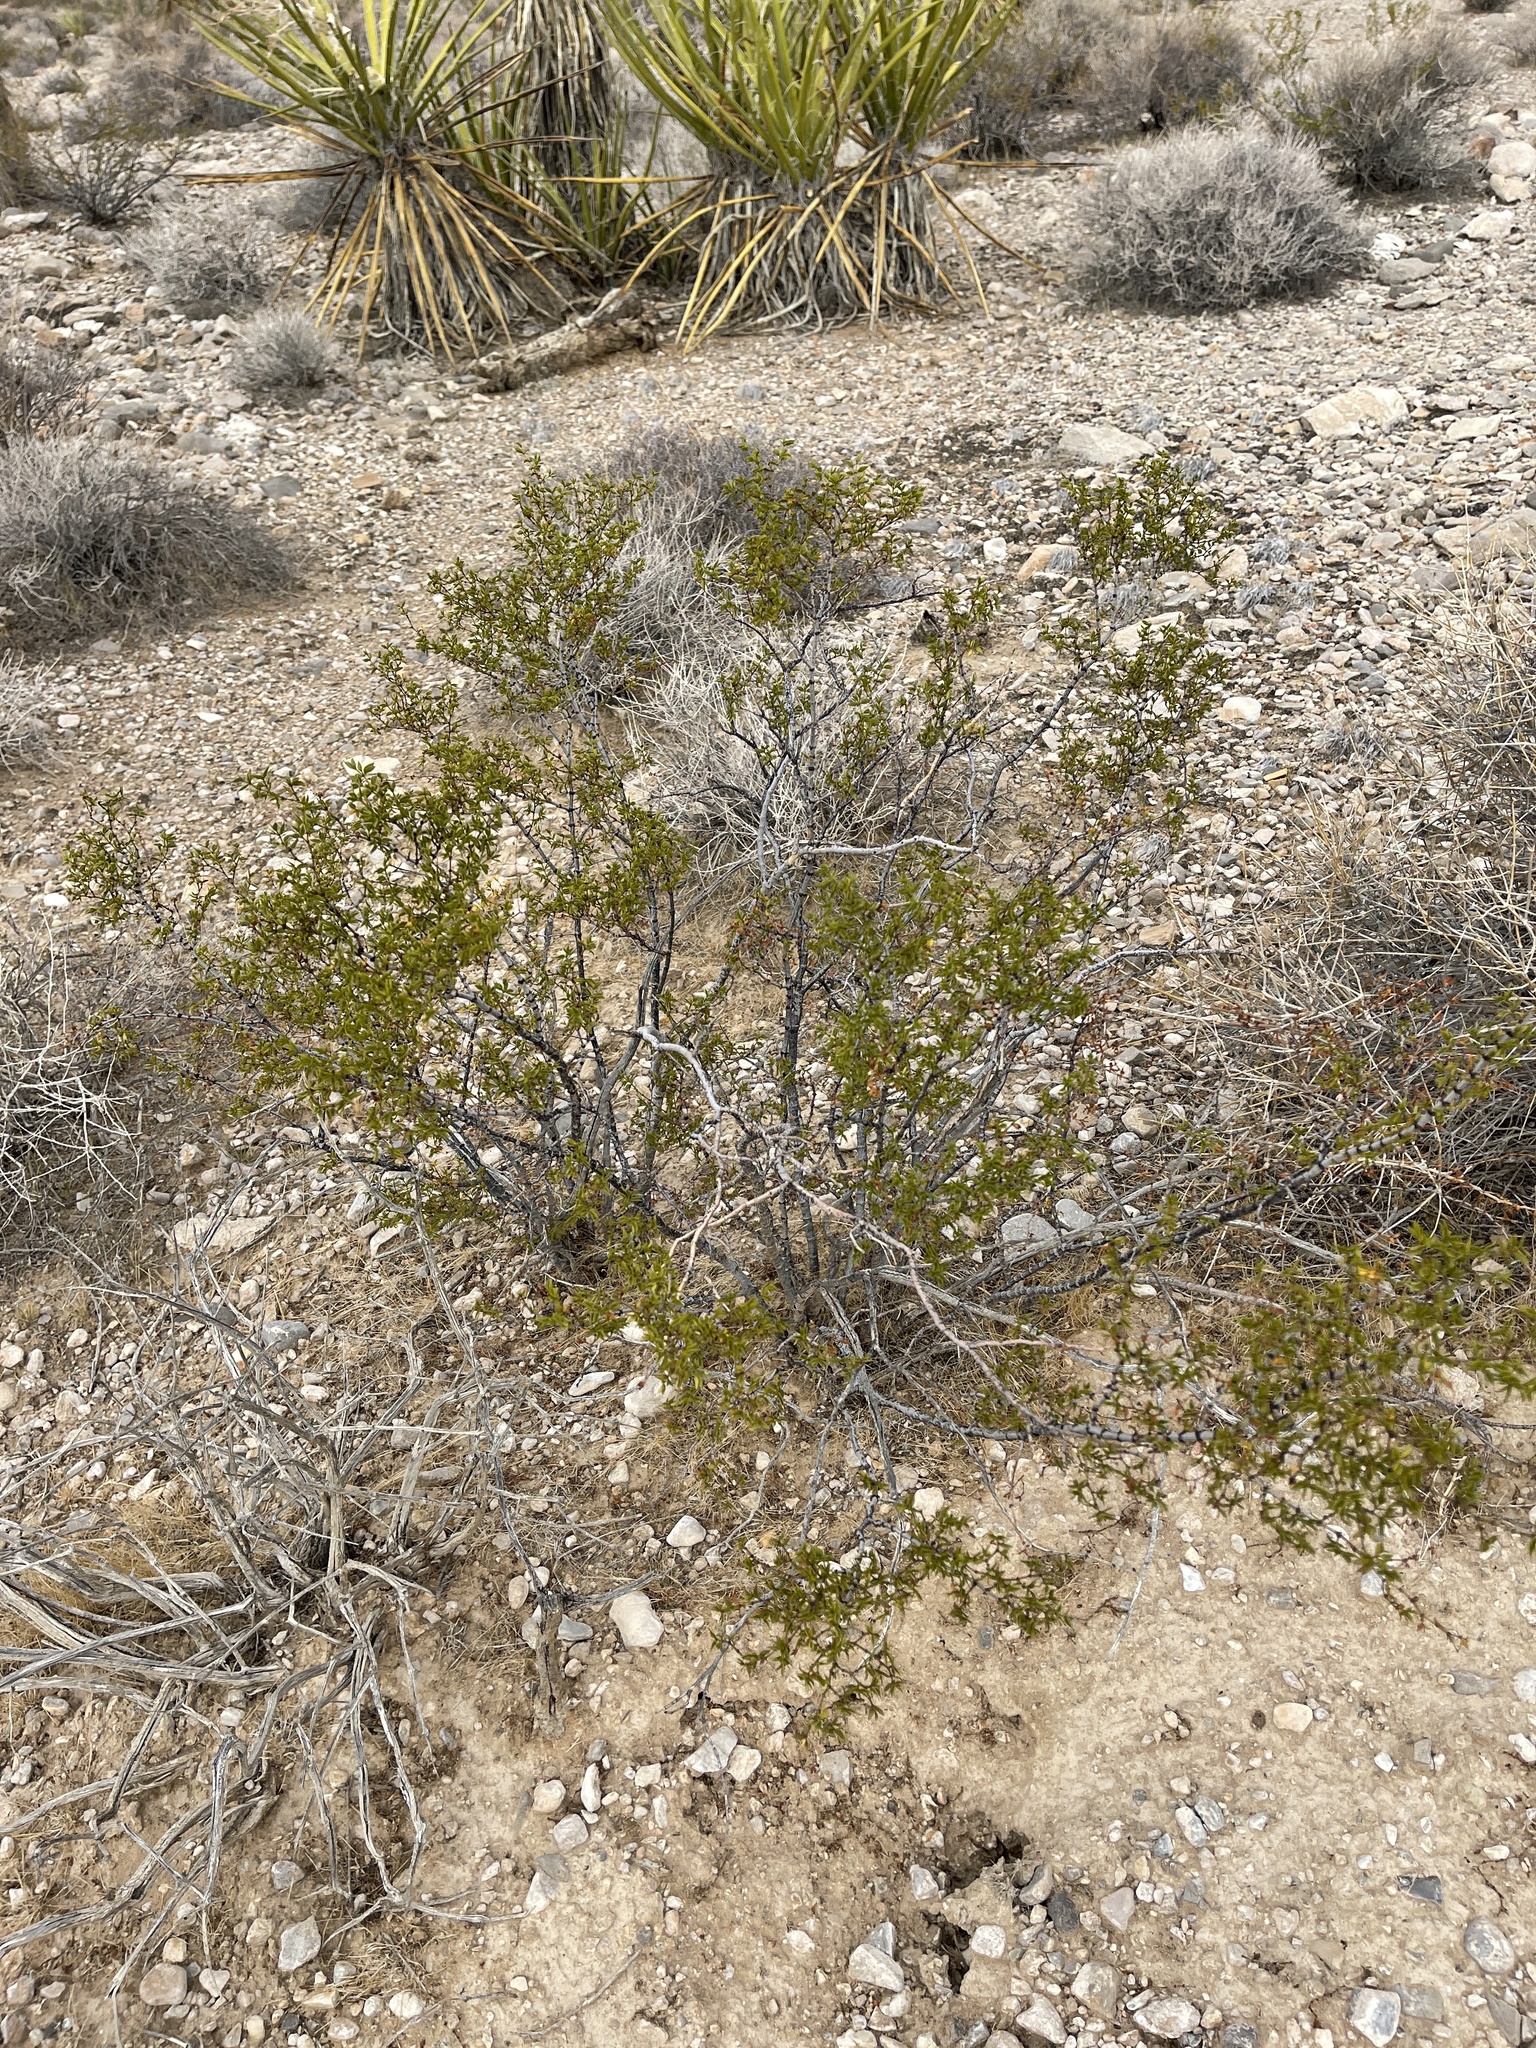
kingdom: Plantae
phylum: Tracheophyta
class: Magnoliopsida
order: Zygophyllales
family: Zygophyllaceae
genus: Larrea
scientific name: Larrea tridentata
